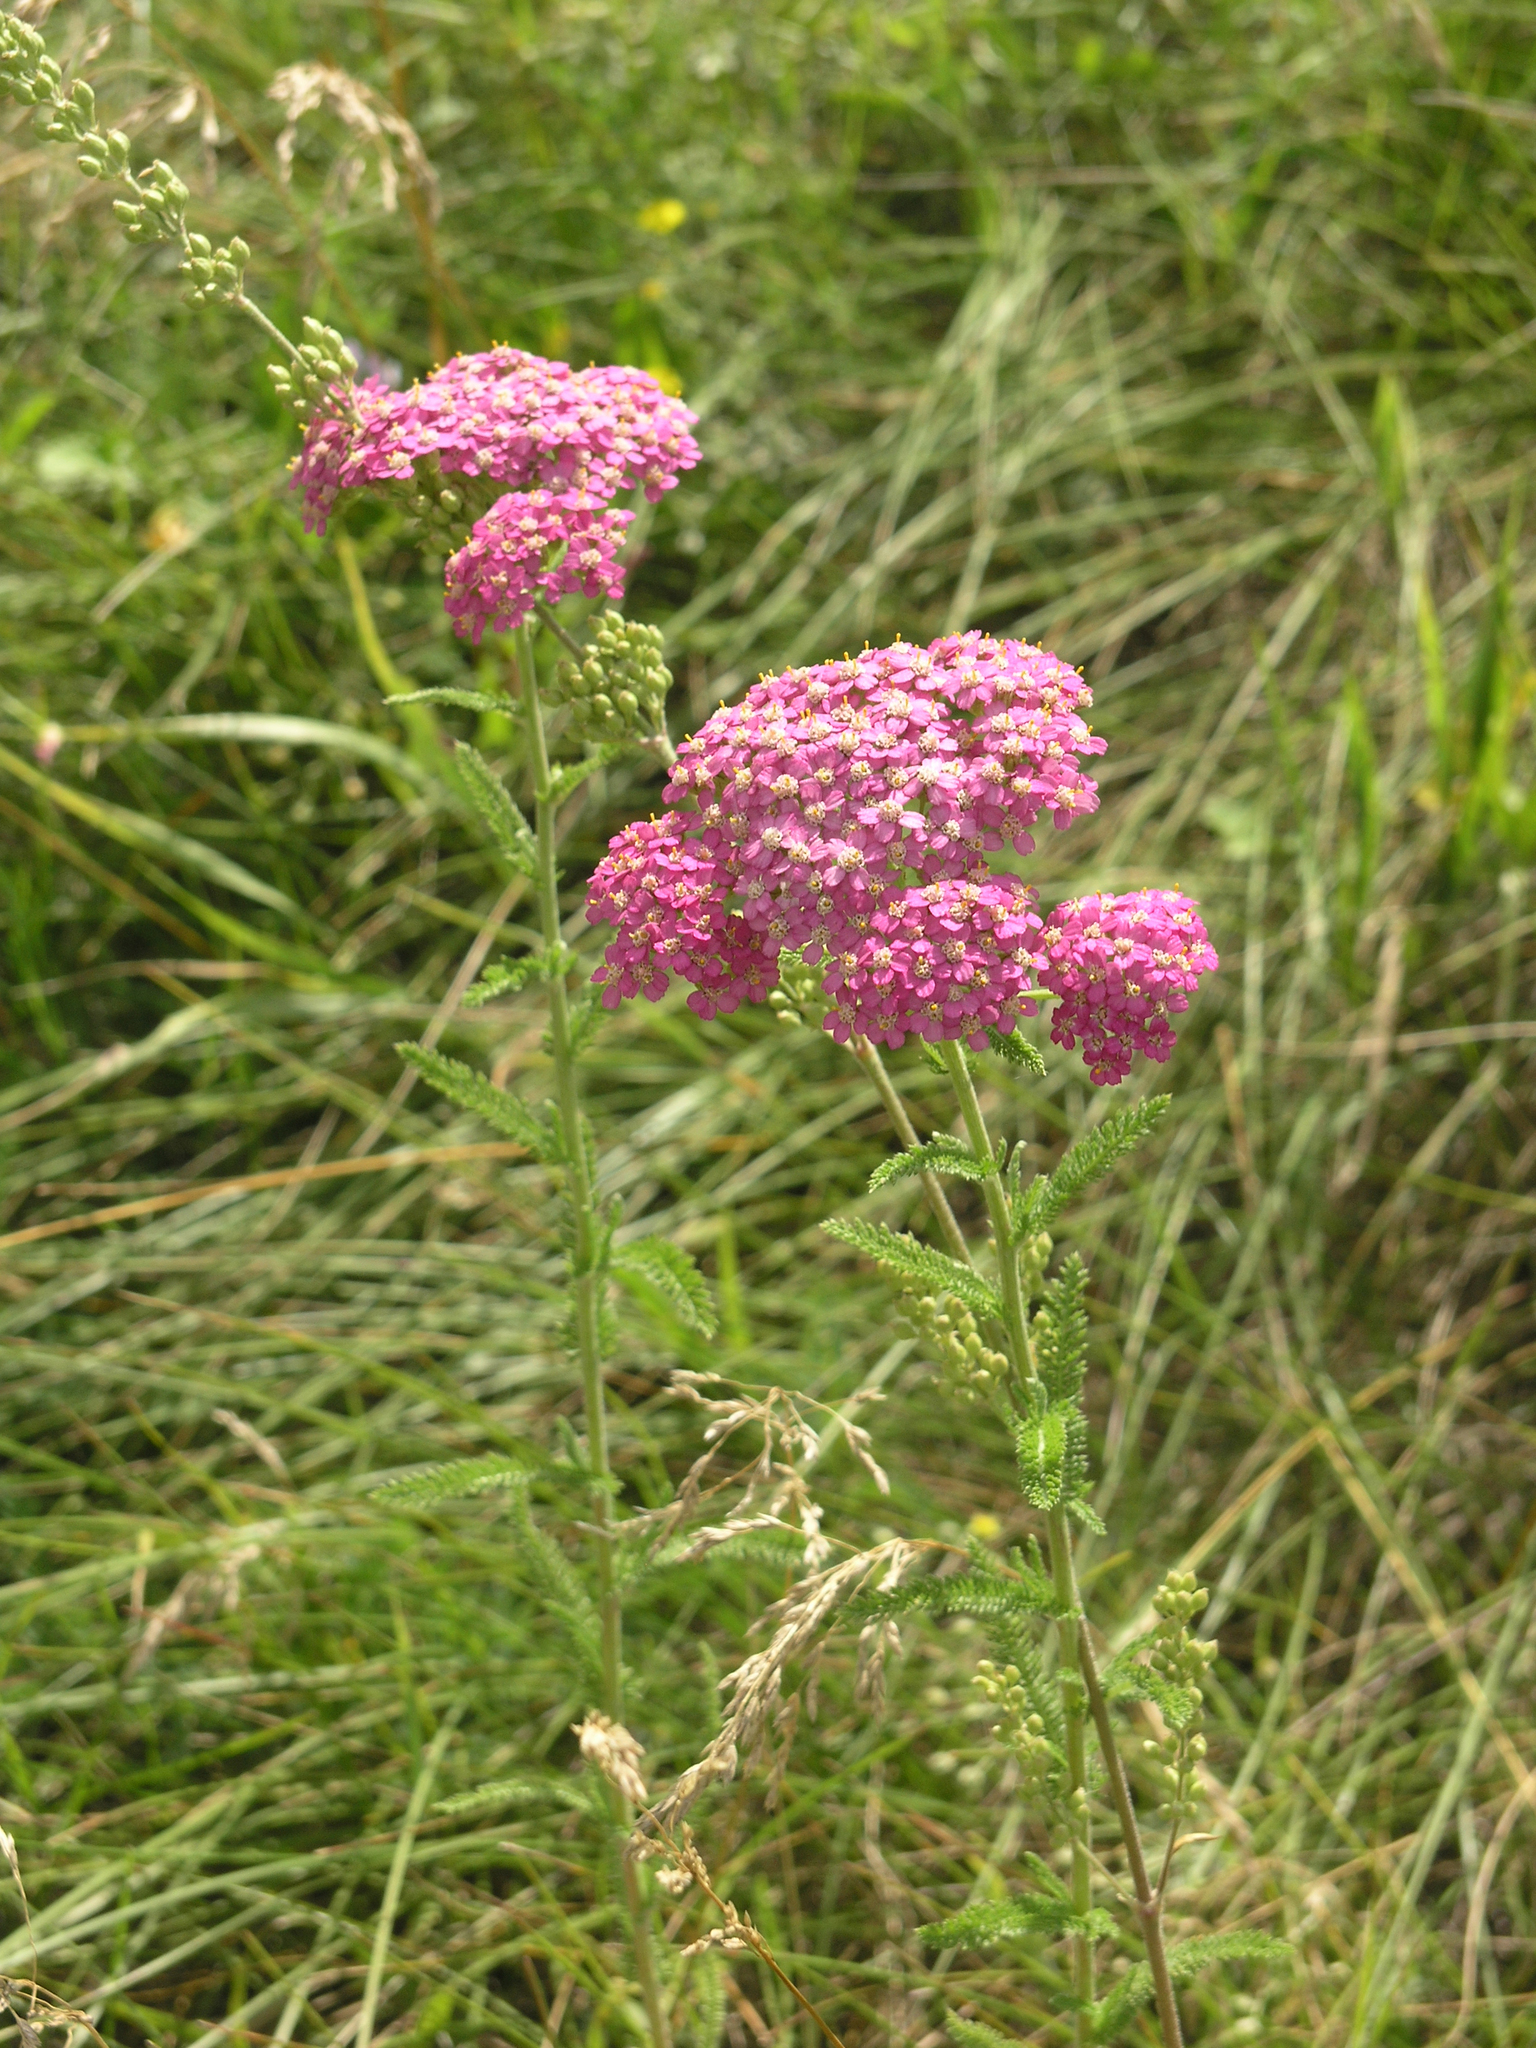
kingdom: Plantae
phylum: Tracheophyta
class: Magnoliopsida
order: Asterales
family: Asteraceae
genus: Achillea
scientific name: Achillea asiatica
